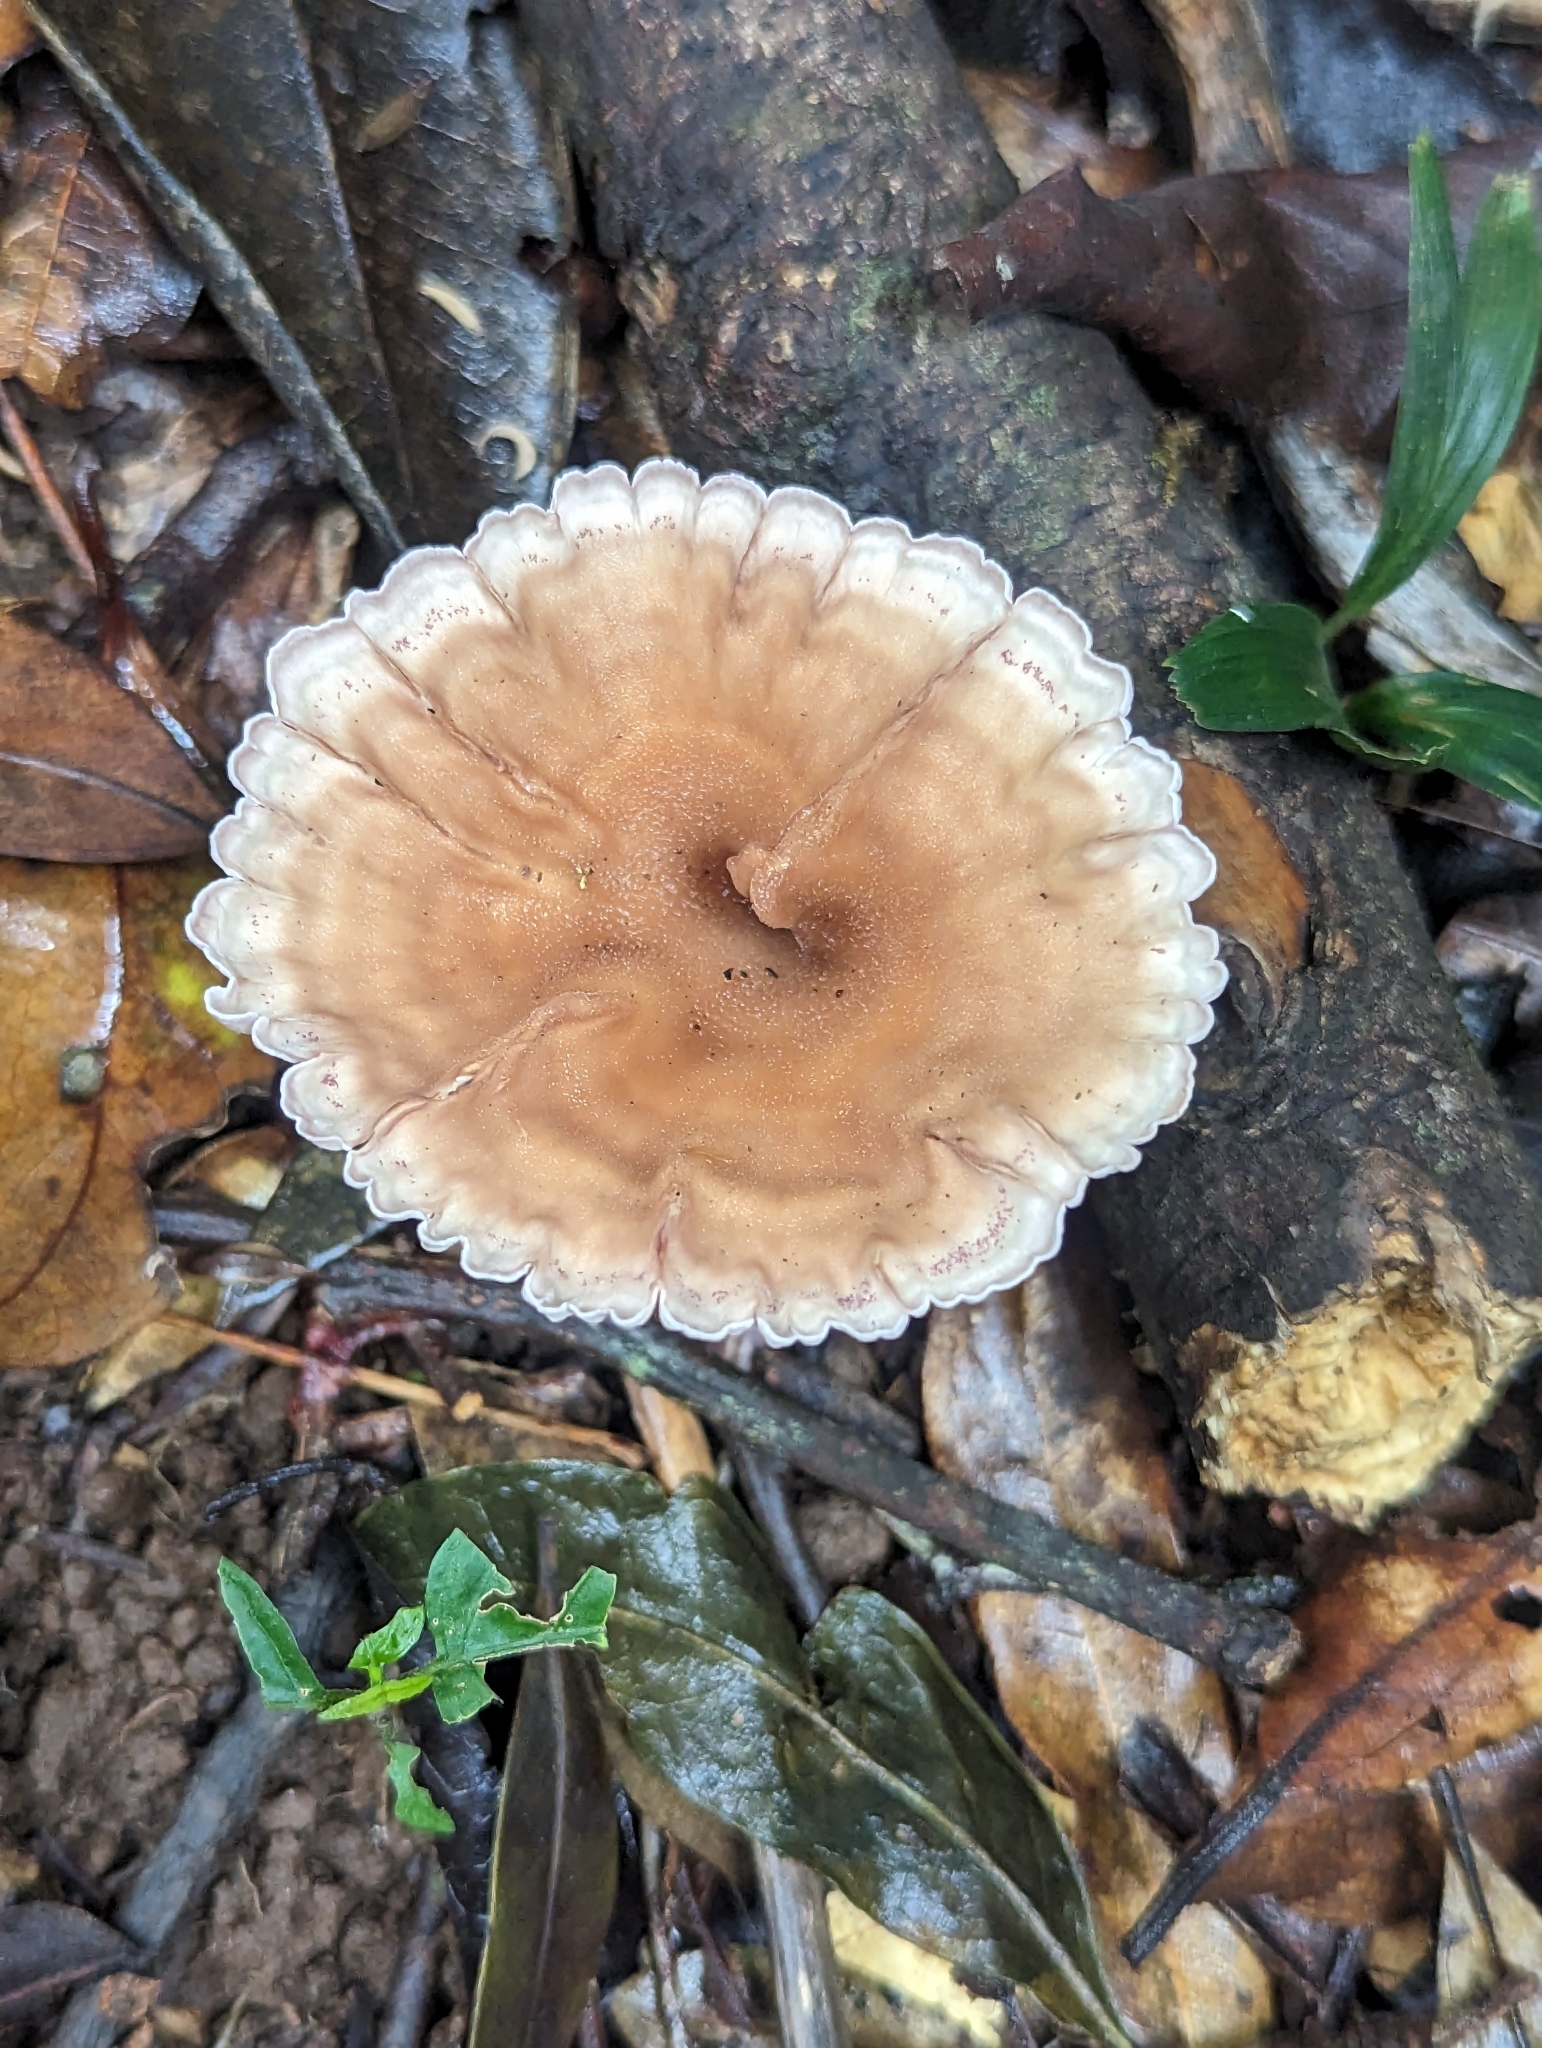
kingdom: Fungi
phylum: Basidiomycota
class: Agaricomycetes
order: Polyporales
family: Panaceae
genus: Cymatoderma
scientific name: Cymatoderma elegans
